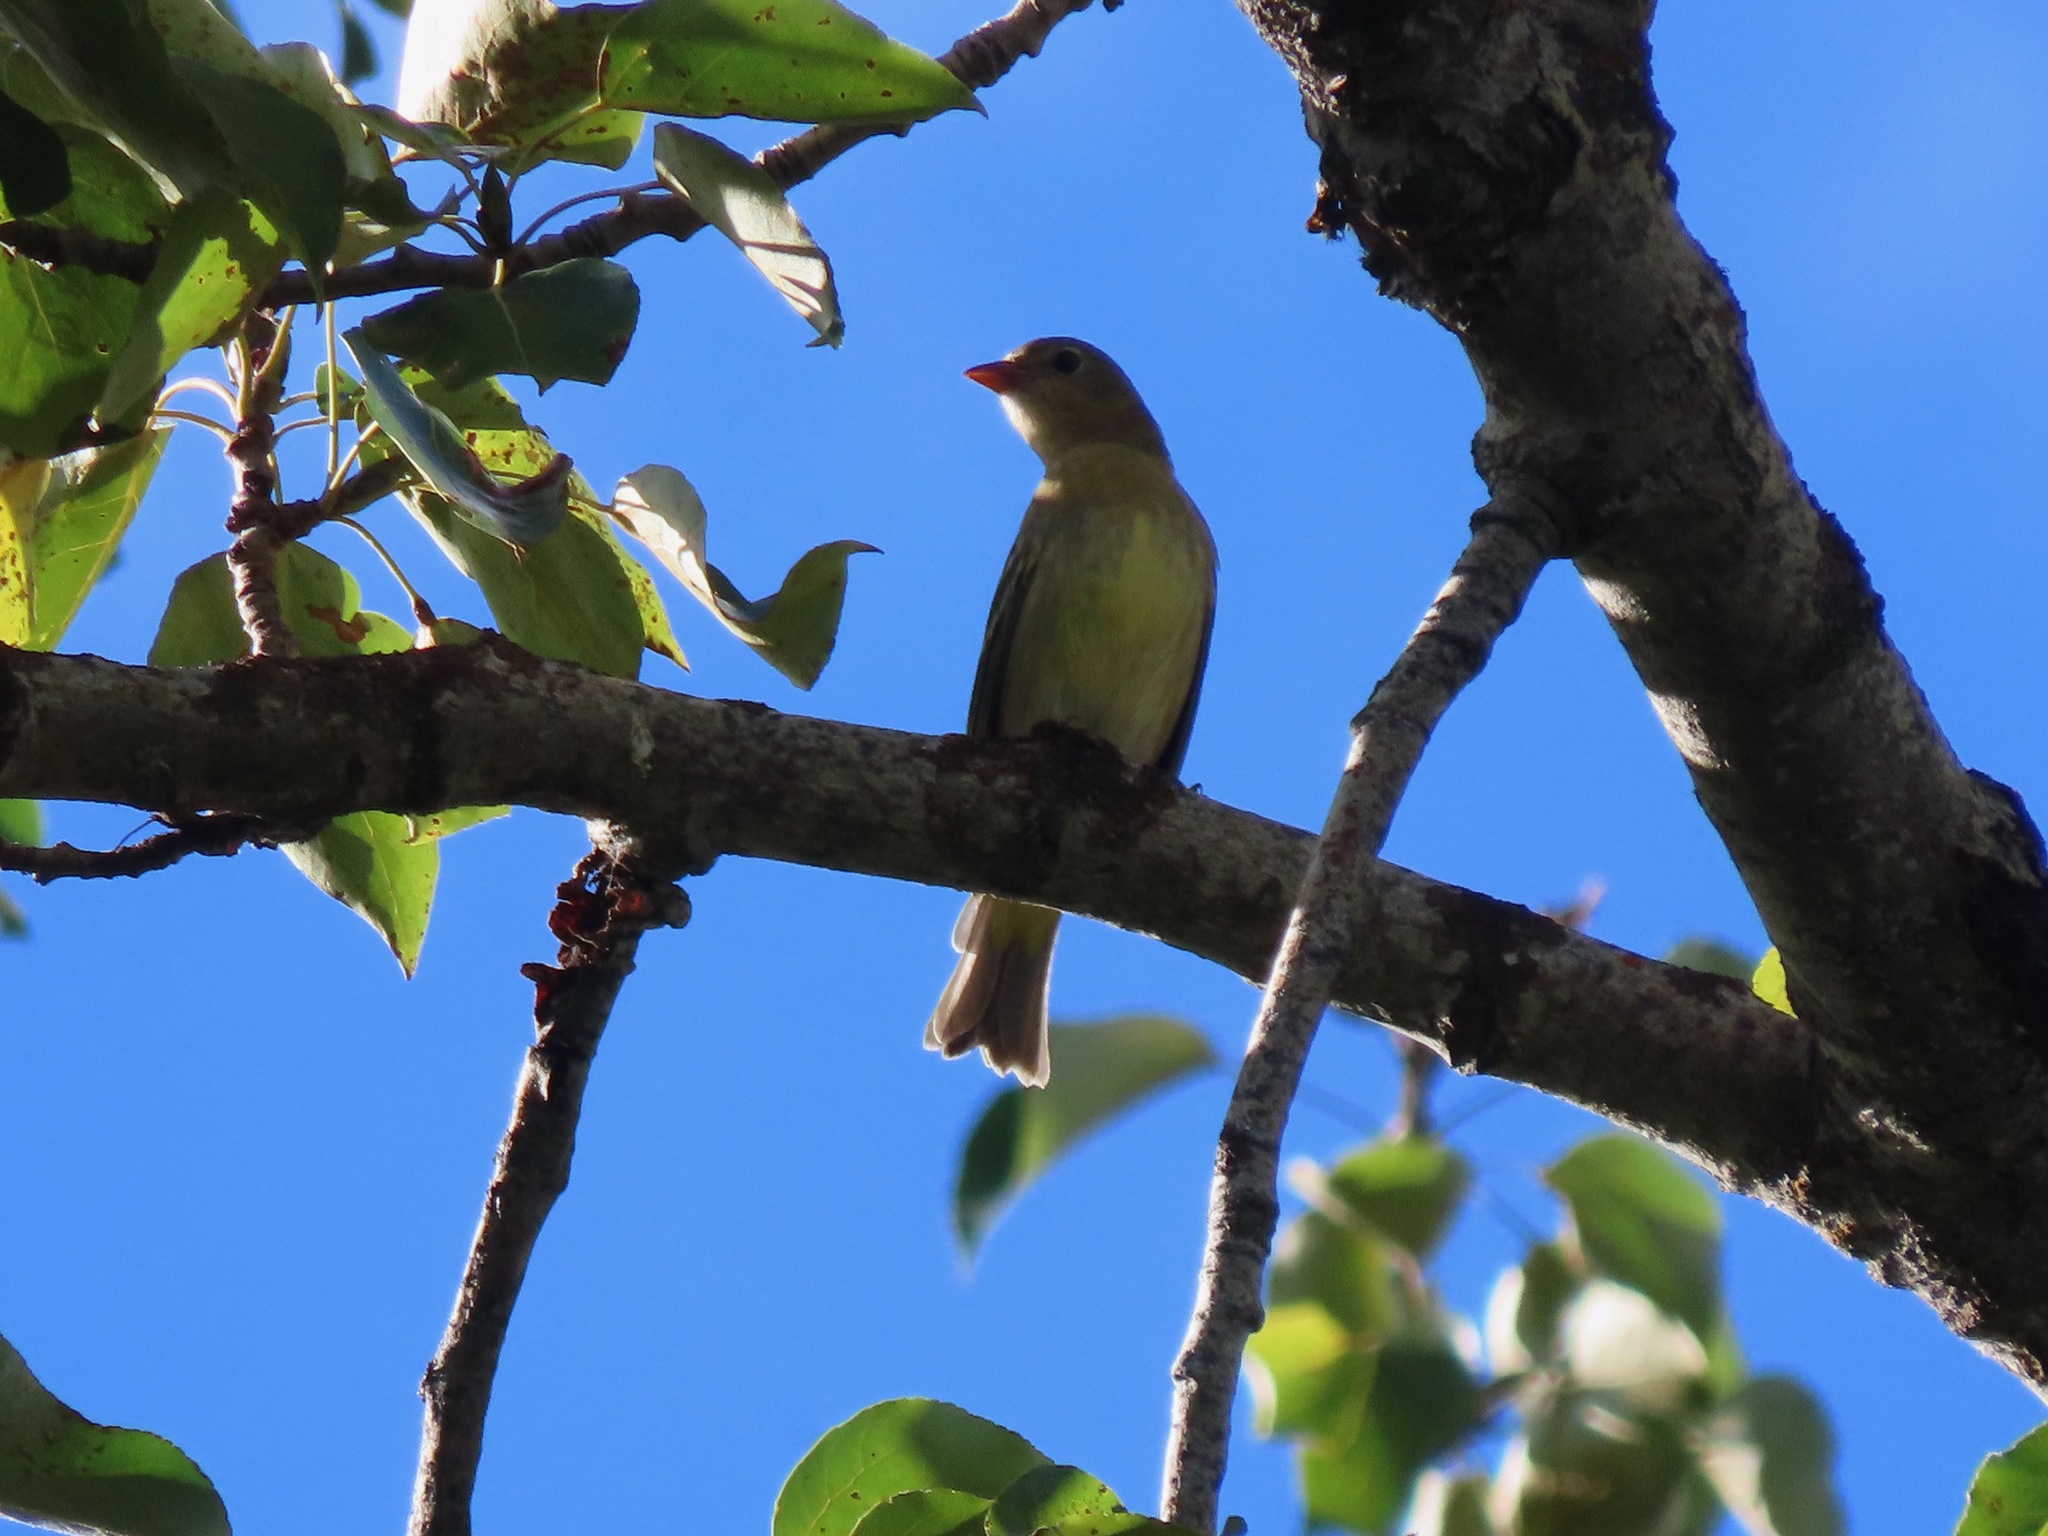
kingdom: Animalia
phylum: Chordata
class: Aves
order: Passeriformes
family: Cardinalidae
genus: Piranga
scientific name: Piranga ludoviciana
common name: Western tanager
